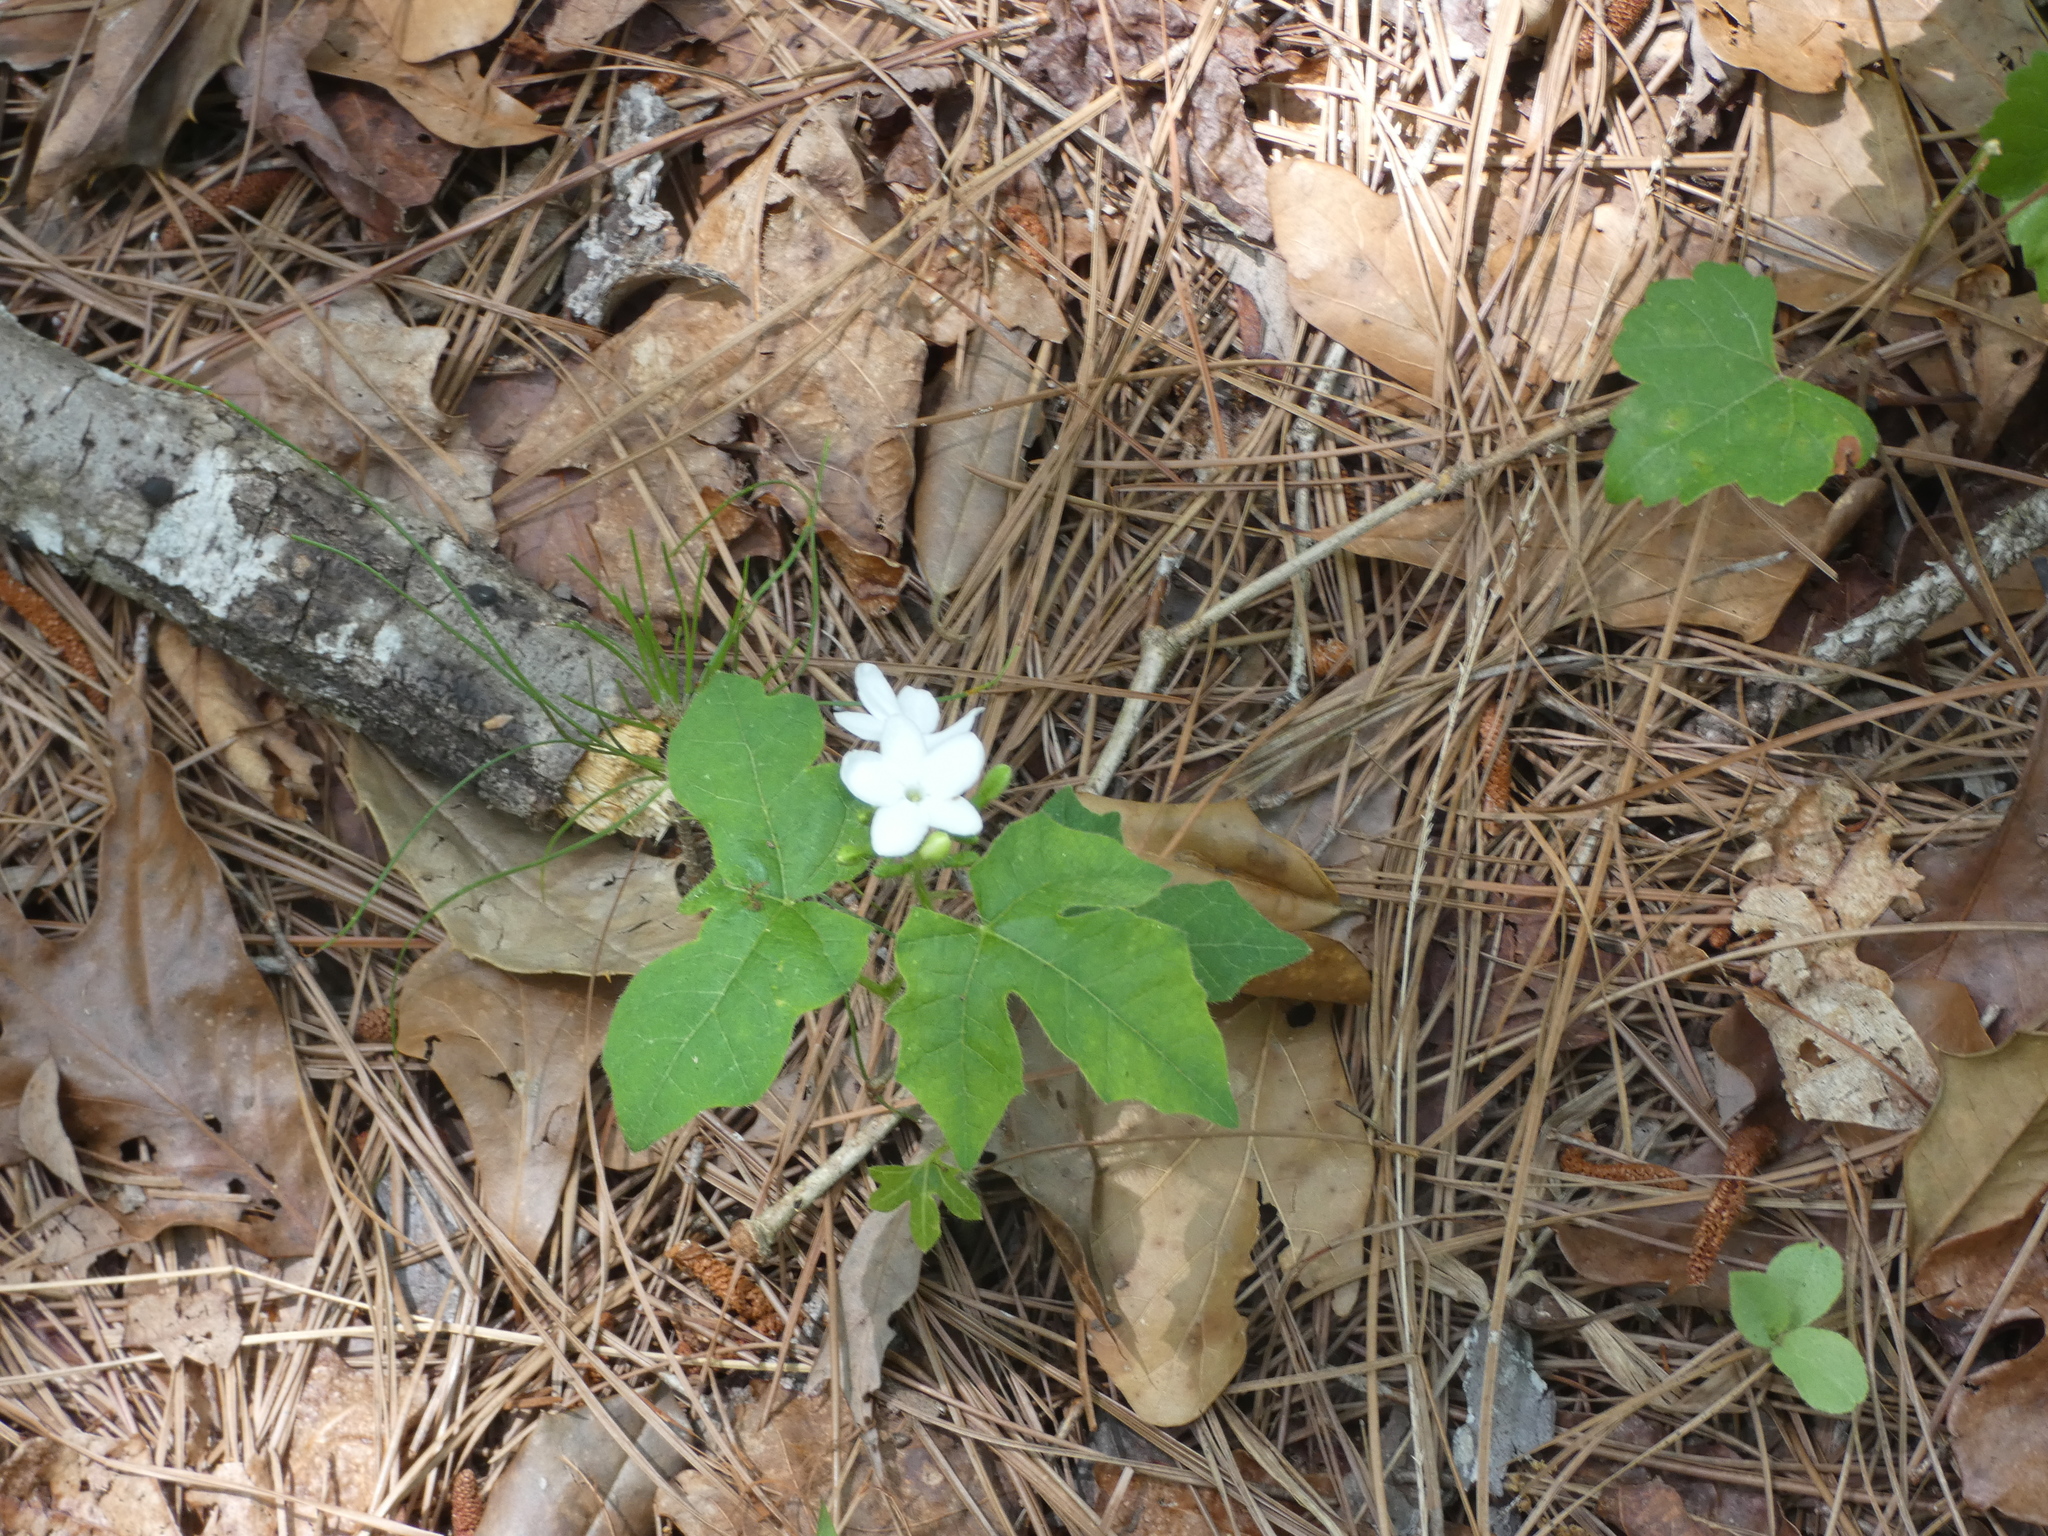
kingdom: Plantae
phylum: Tracheophyta
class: Magnoliopsida
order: Malpighiales
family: Euphorbiaceae
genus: Cnidoscolus
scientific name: Cnidoscolus stimulosus
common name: Bull-nettle
